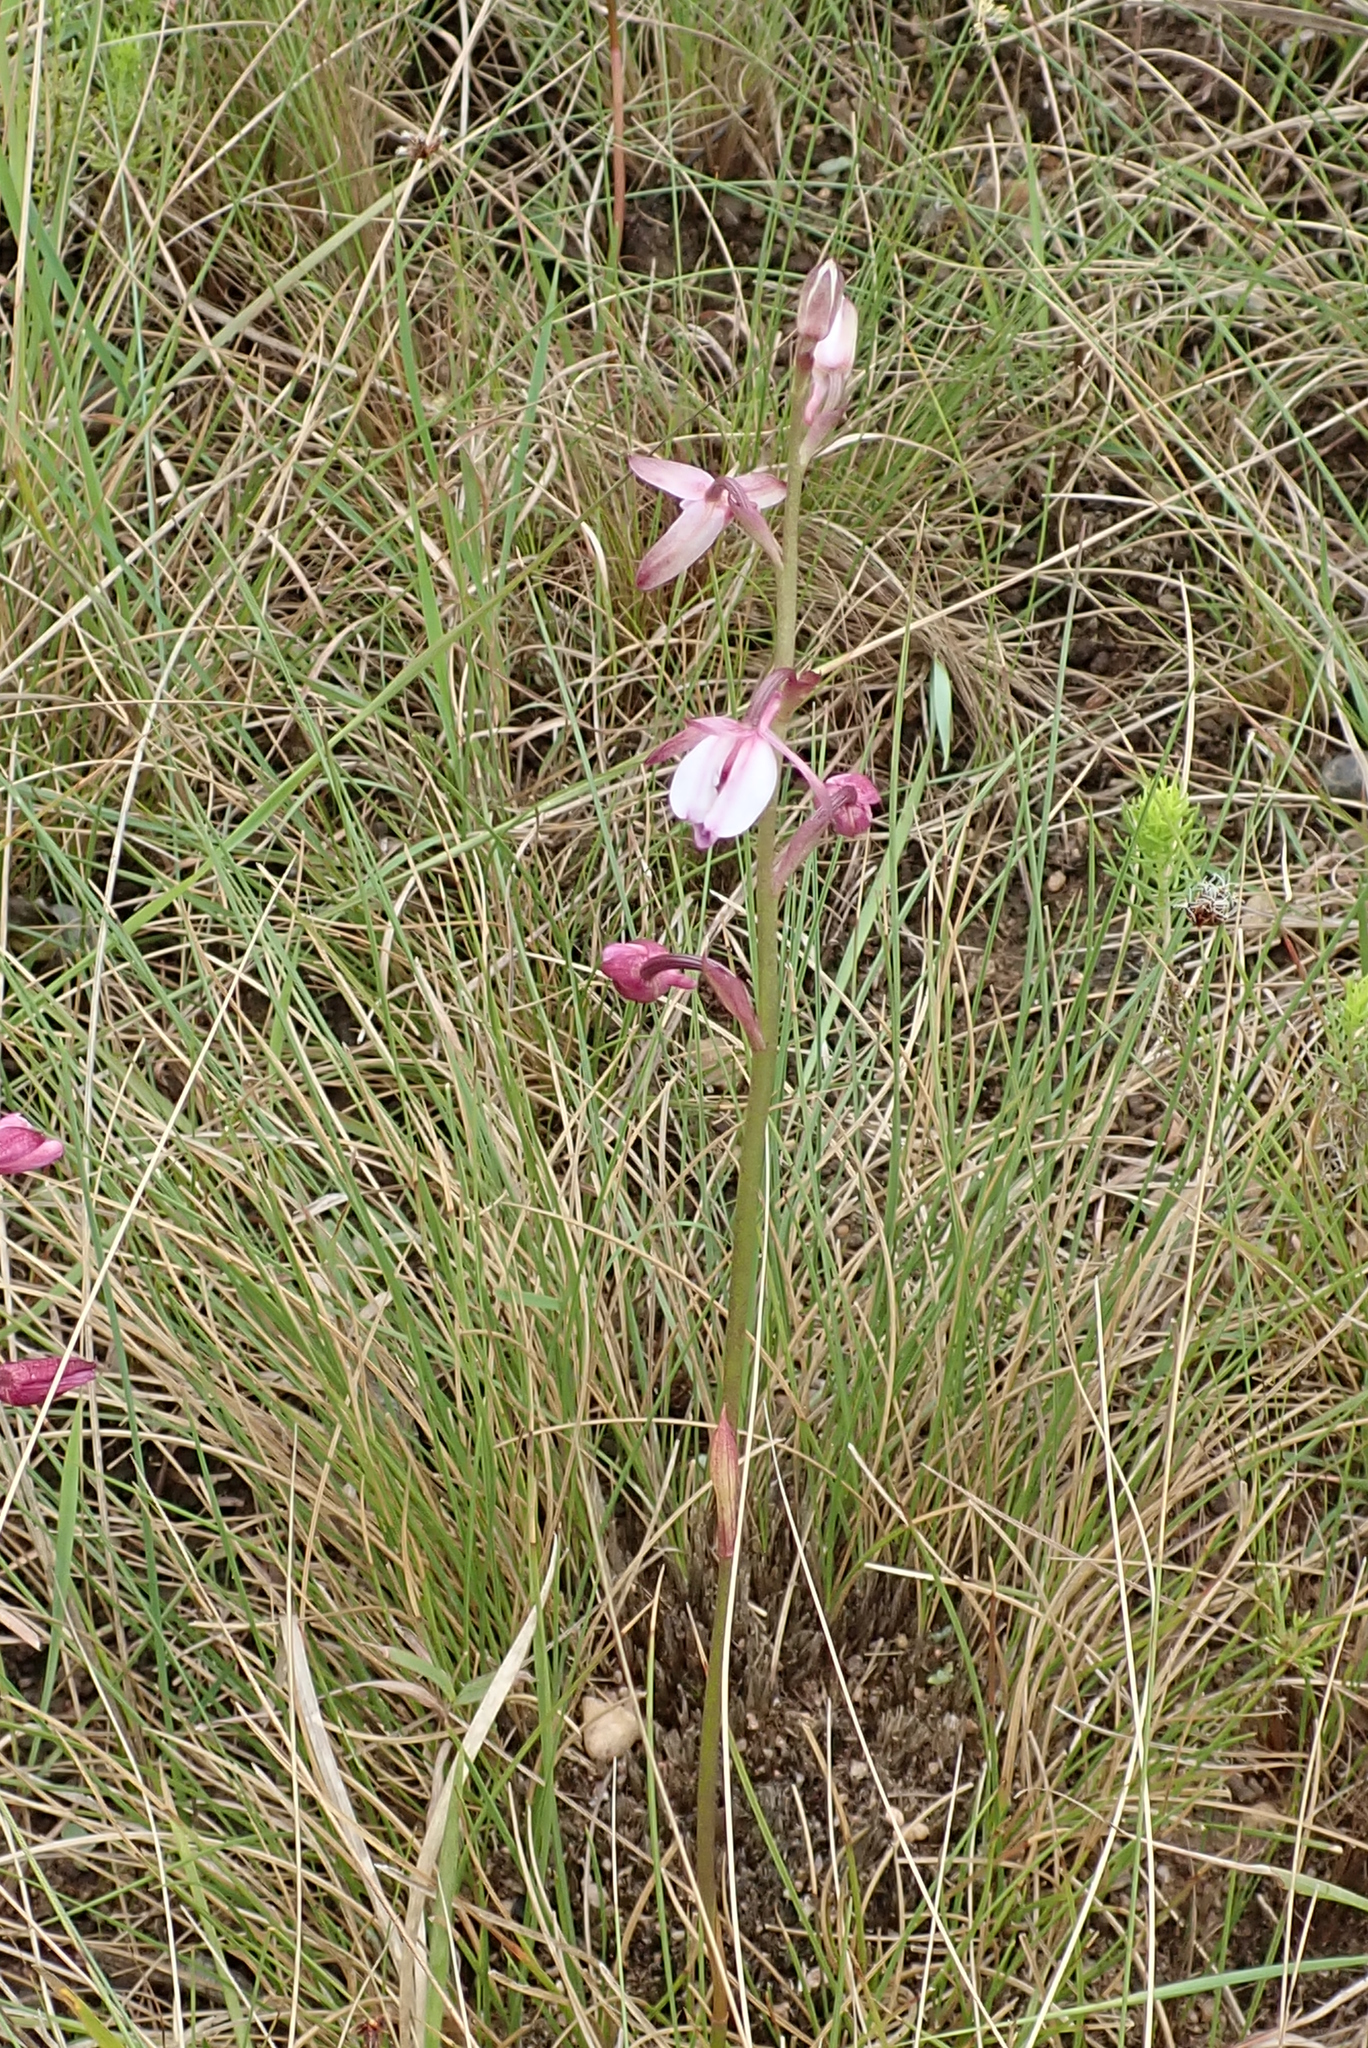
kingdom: Plantae
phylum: Tracheophyta
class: Liliopsida
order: Asparagales
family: Orchidaceae
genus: Eulophia
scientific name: Eulophia hians
